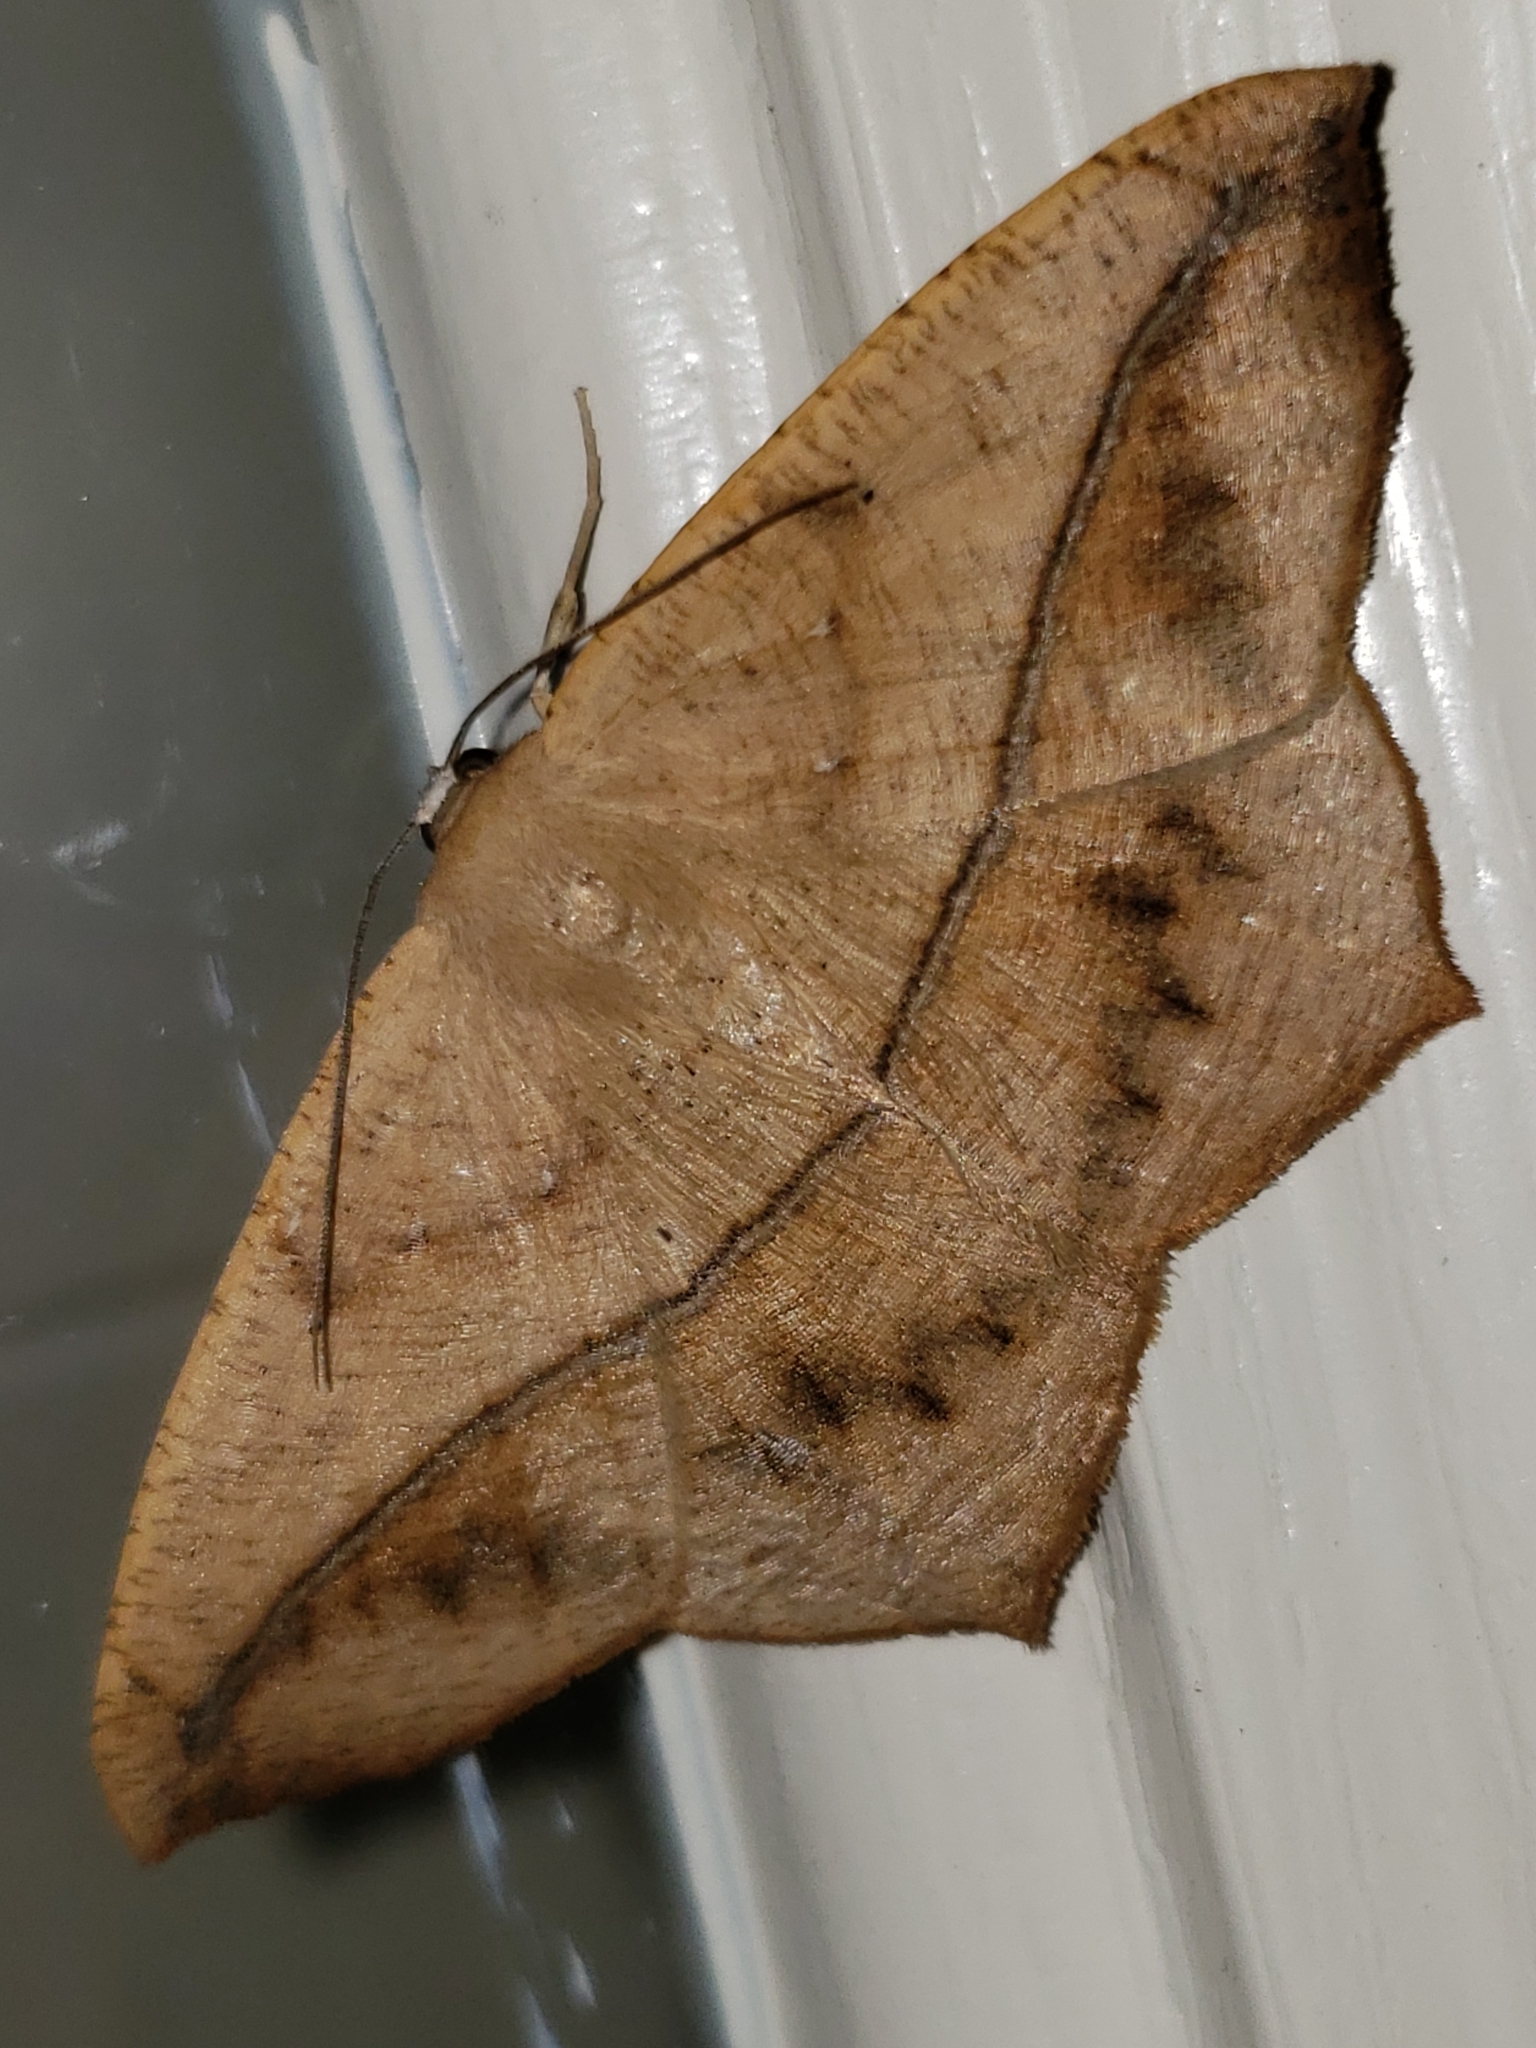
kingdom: Animalia
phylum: Arthropoda
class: Insecta
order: Lepidoptera
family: Geometridae
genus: Prochoerodes
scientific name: Prochoerodes lineola
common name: Large maple spanworm
